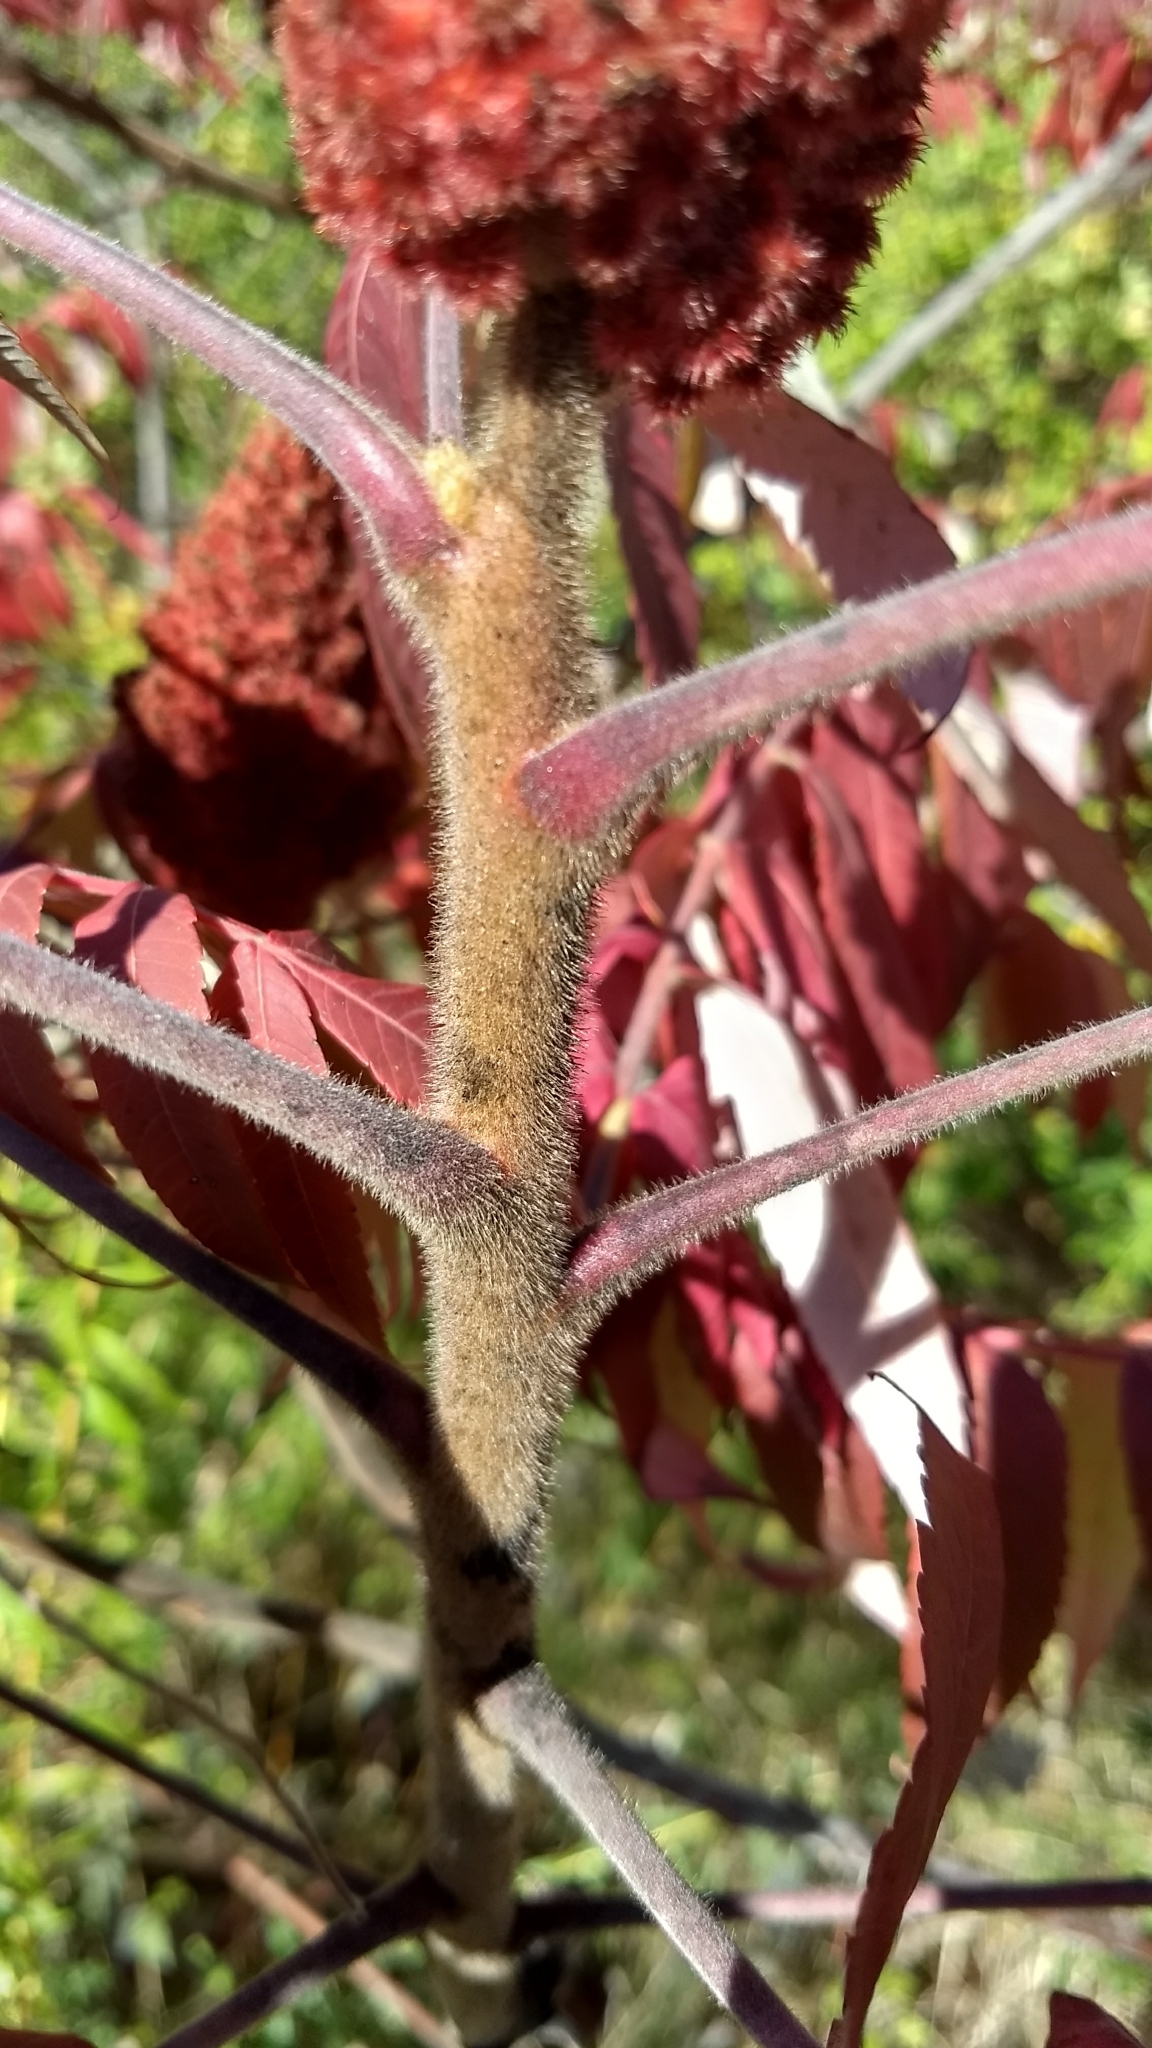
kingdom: Plantae
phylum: Tracheophyta
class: Magnoliopsida
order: Sapindales
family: Anacardiaceae
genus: Rhus
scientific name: Rhus typhina
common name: Staghorn sumac
